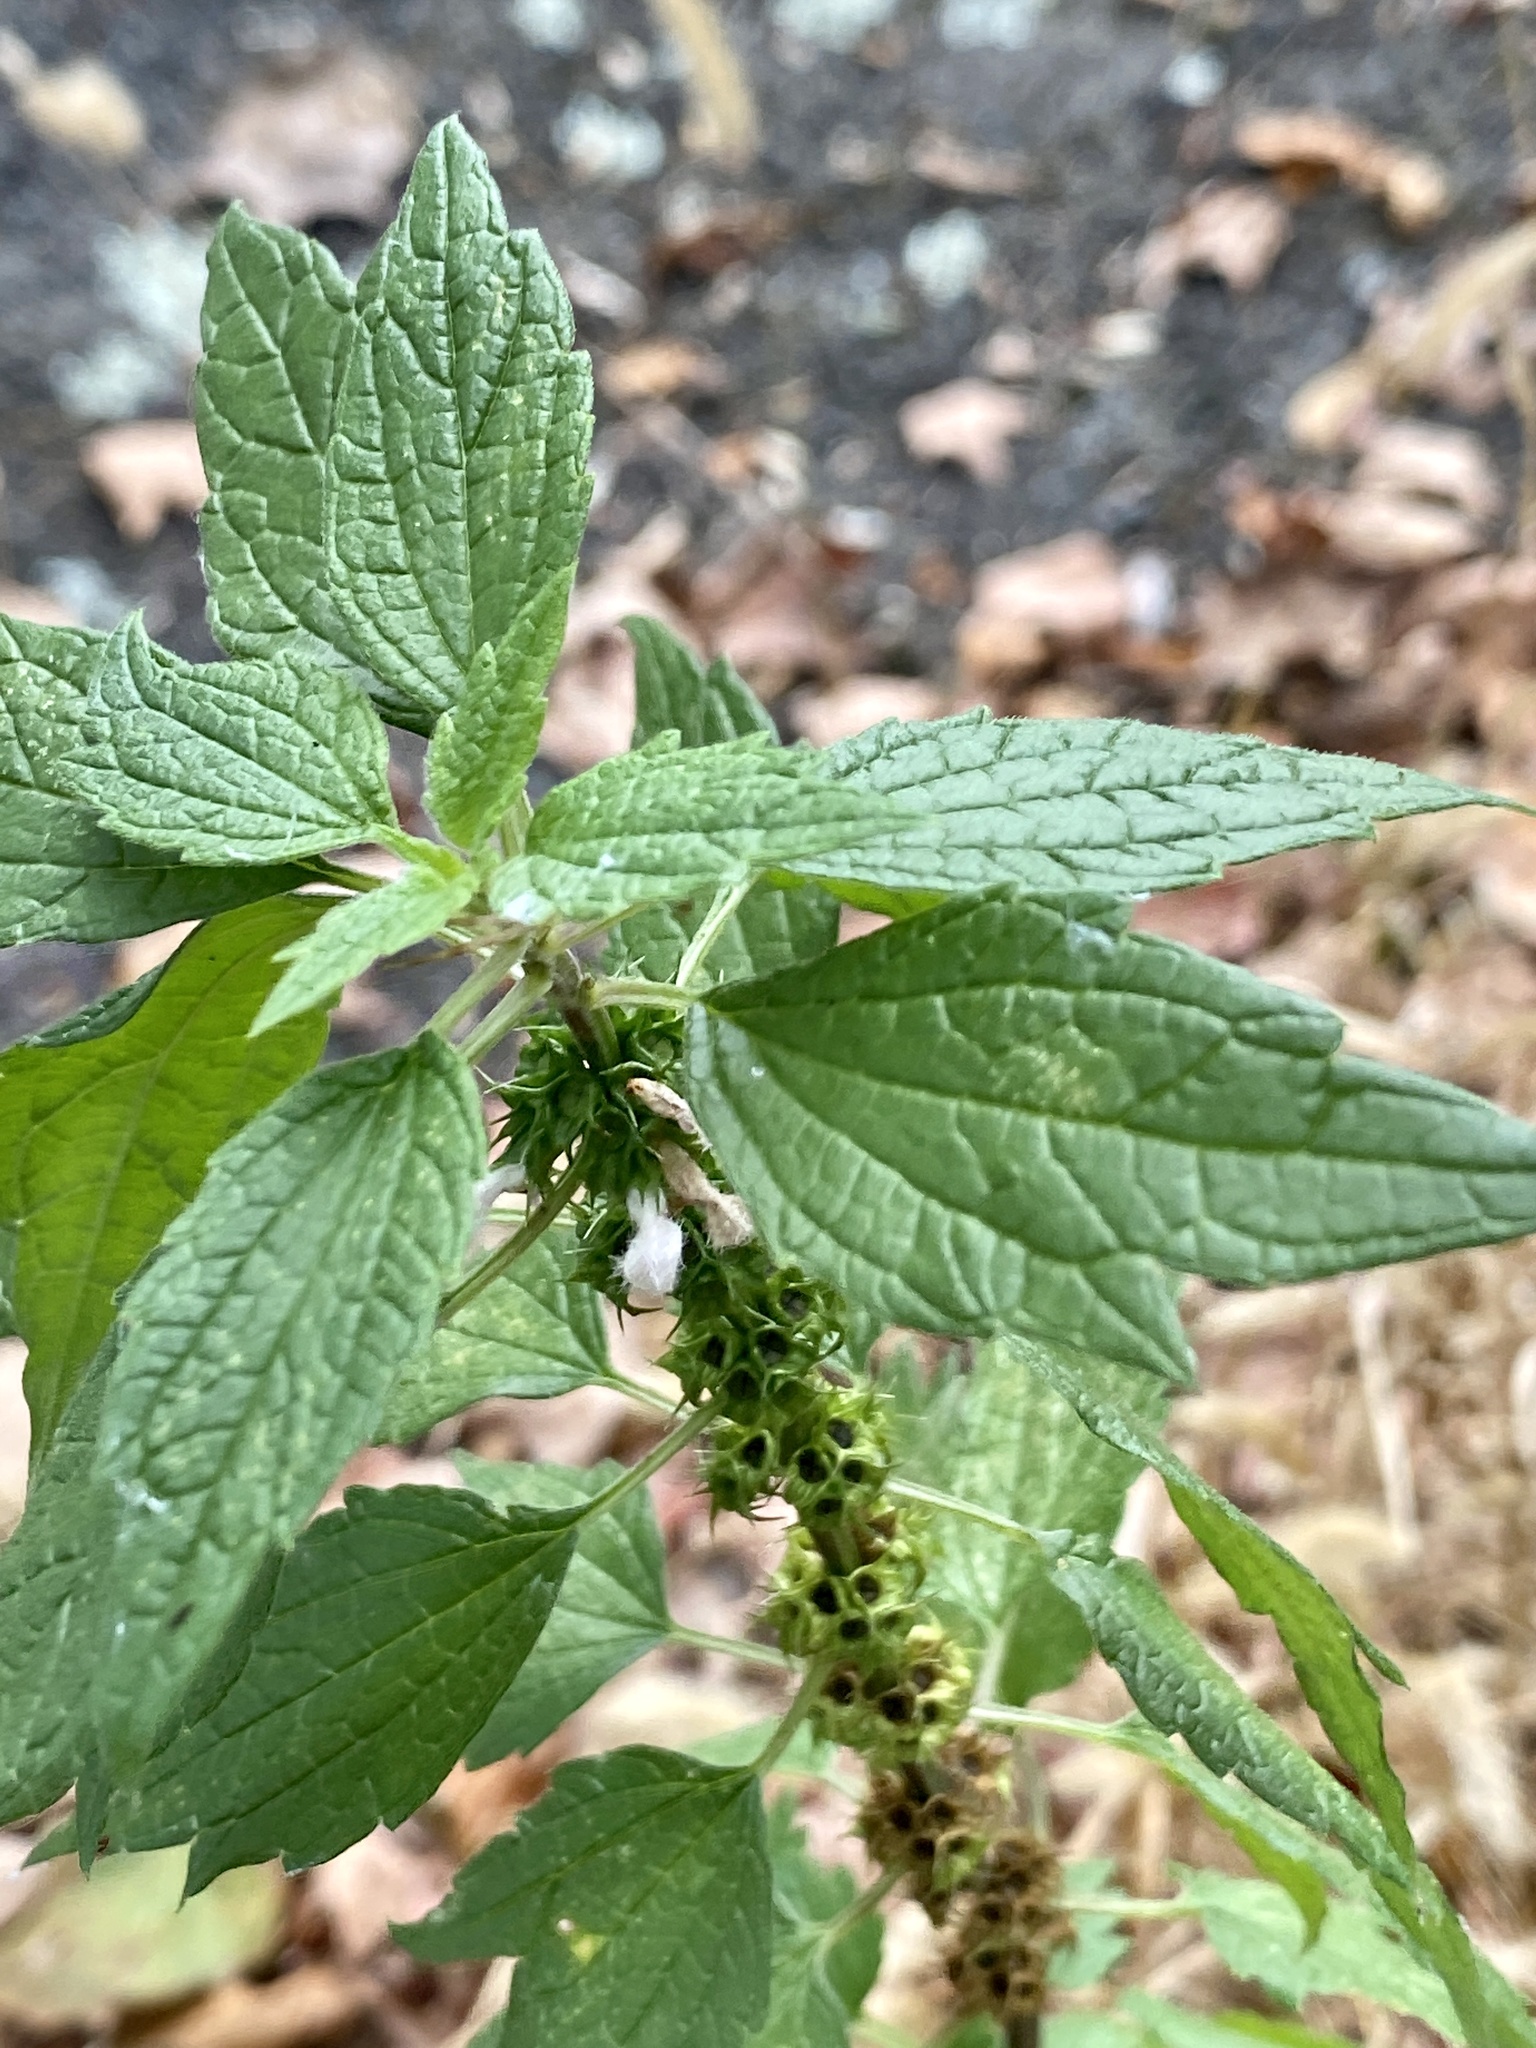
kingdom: Plantae
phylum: Tracheophyta
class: Magnoliopsida
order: Lamiales
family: Lamiaceae
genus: Leonurus
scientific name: Leonurus cardiaca
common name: Motherwort
